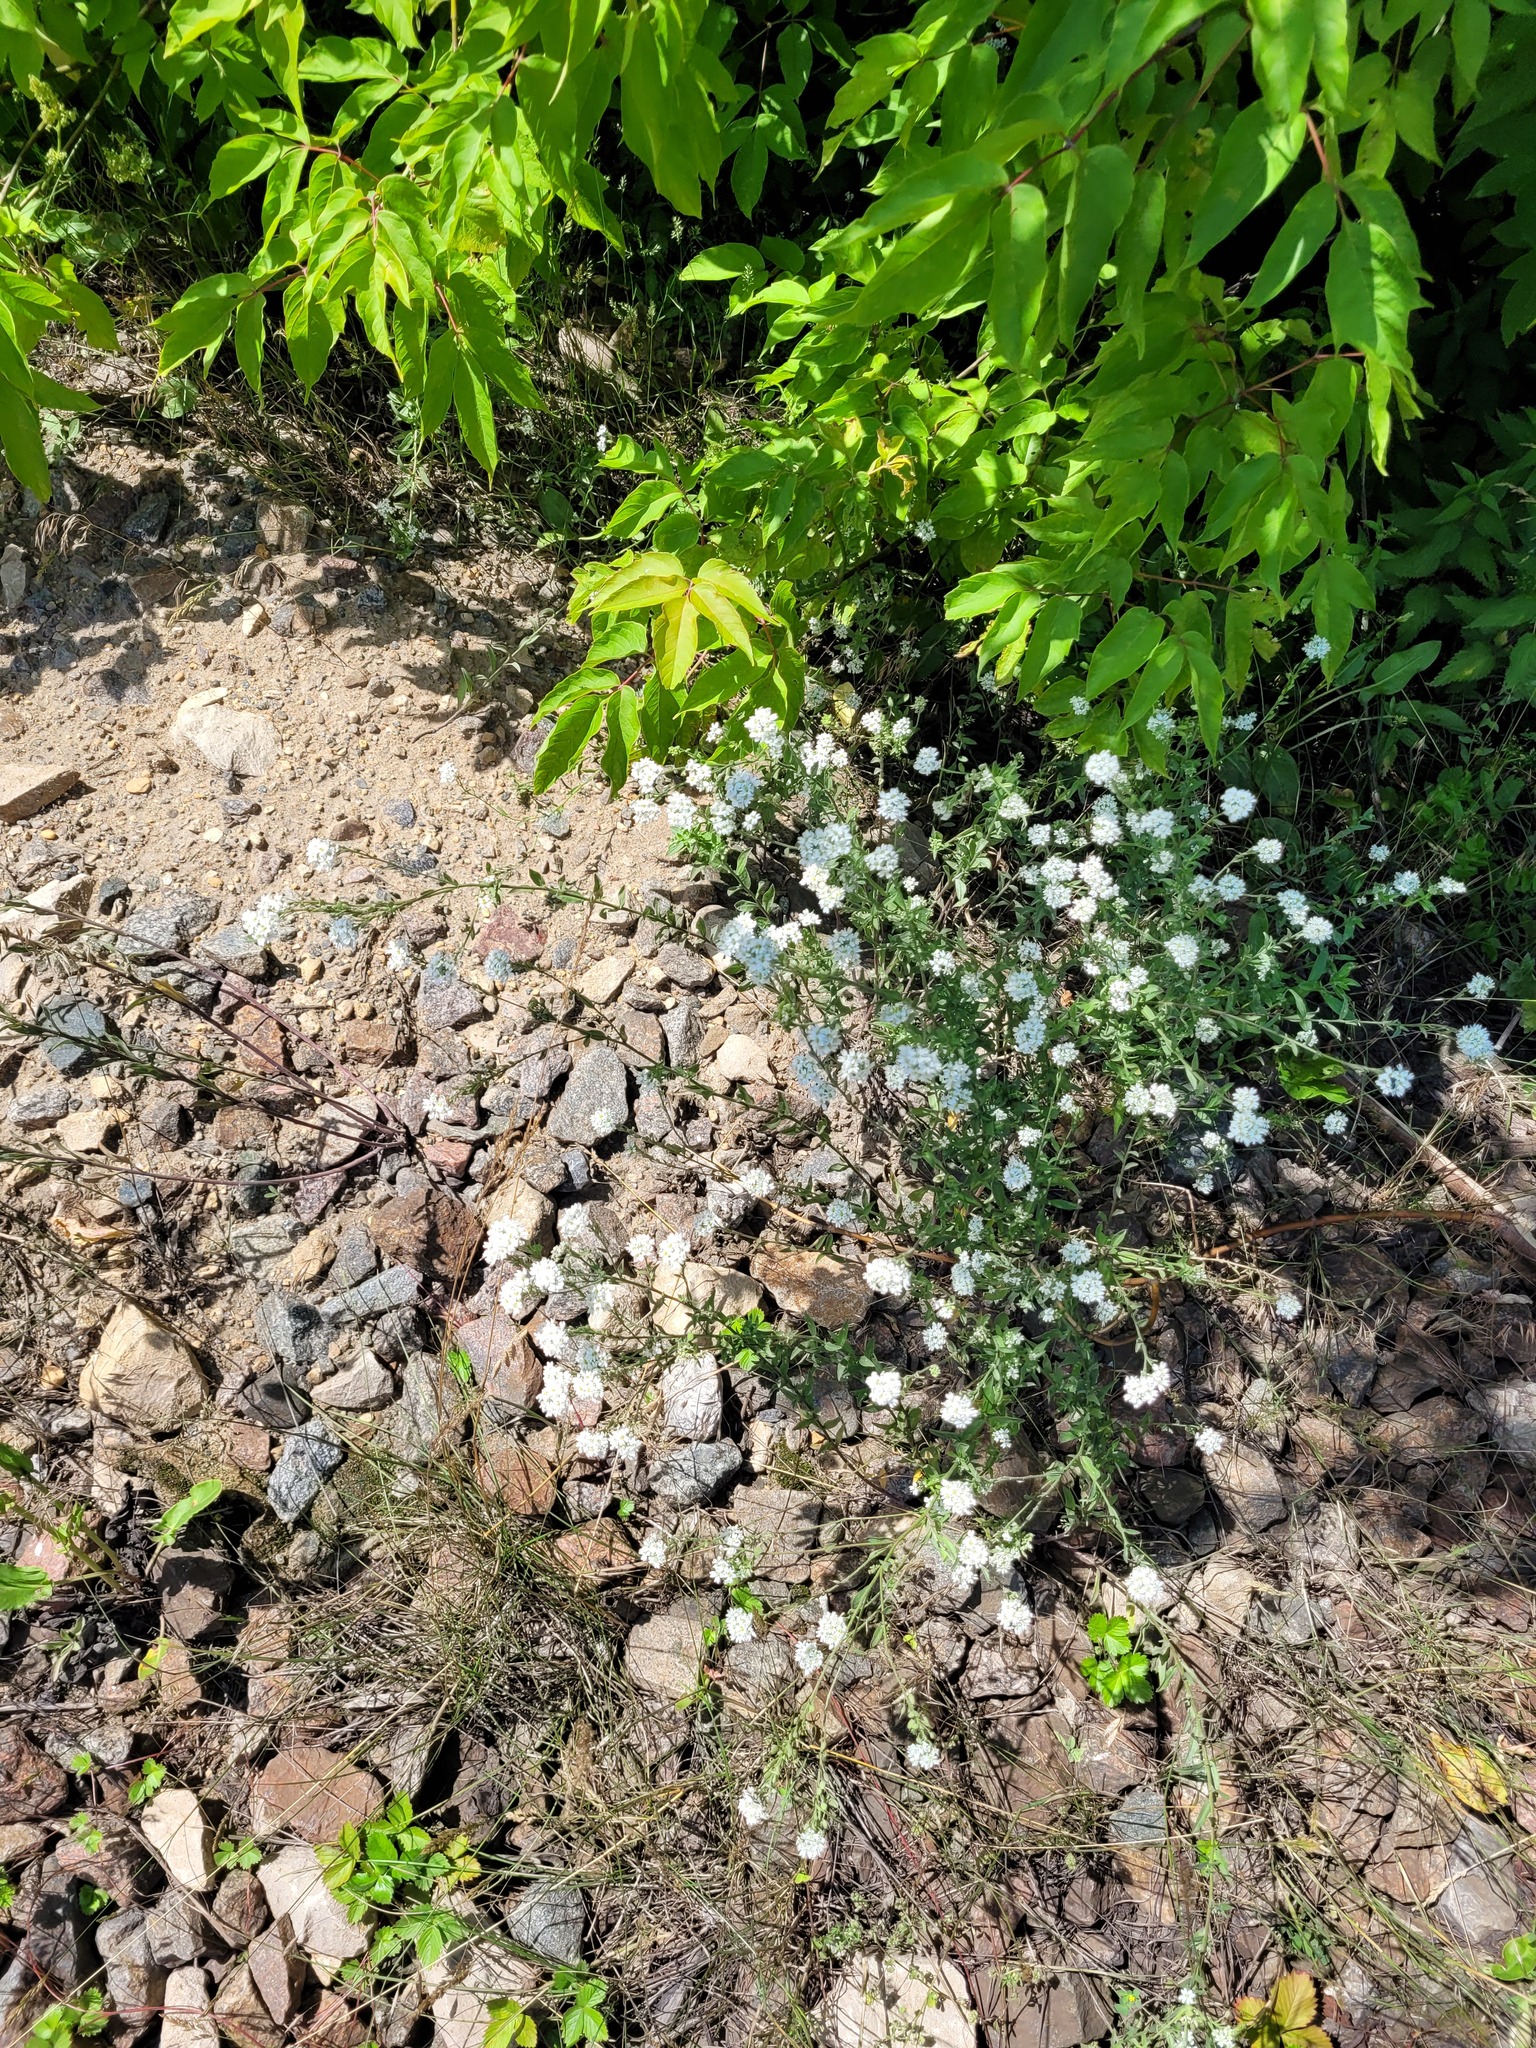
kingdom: Plantae
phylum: Tracheophyta
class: Magnoliopsida
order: Brassicales
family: Brassicaceae
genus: Berteroa
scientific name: Berteroa incana
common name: Hoary alison
